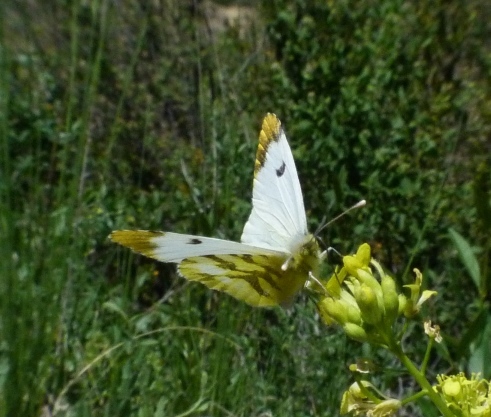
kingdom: Animalia
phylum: Arthropoda
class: Insecta
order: Lepidoptera
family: Pieridae
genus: Anthocharis
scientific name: Anthocharis euphenoides
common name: Provence orange-tip
